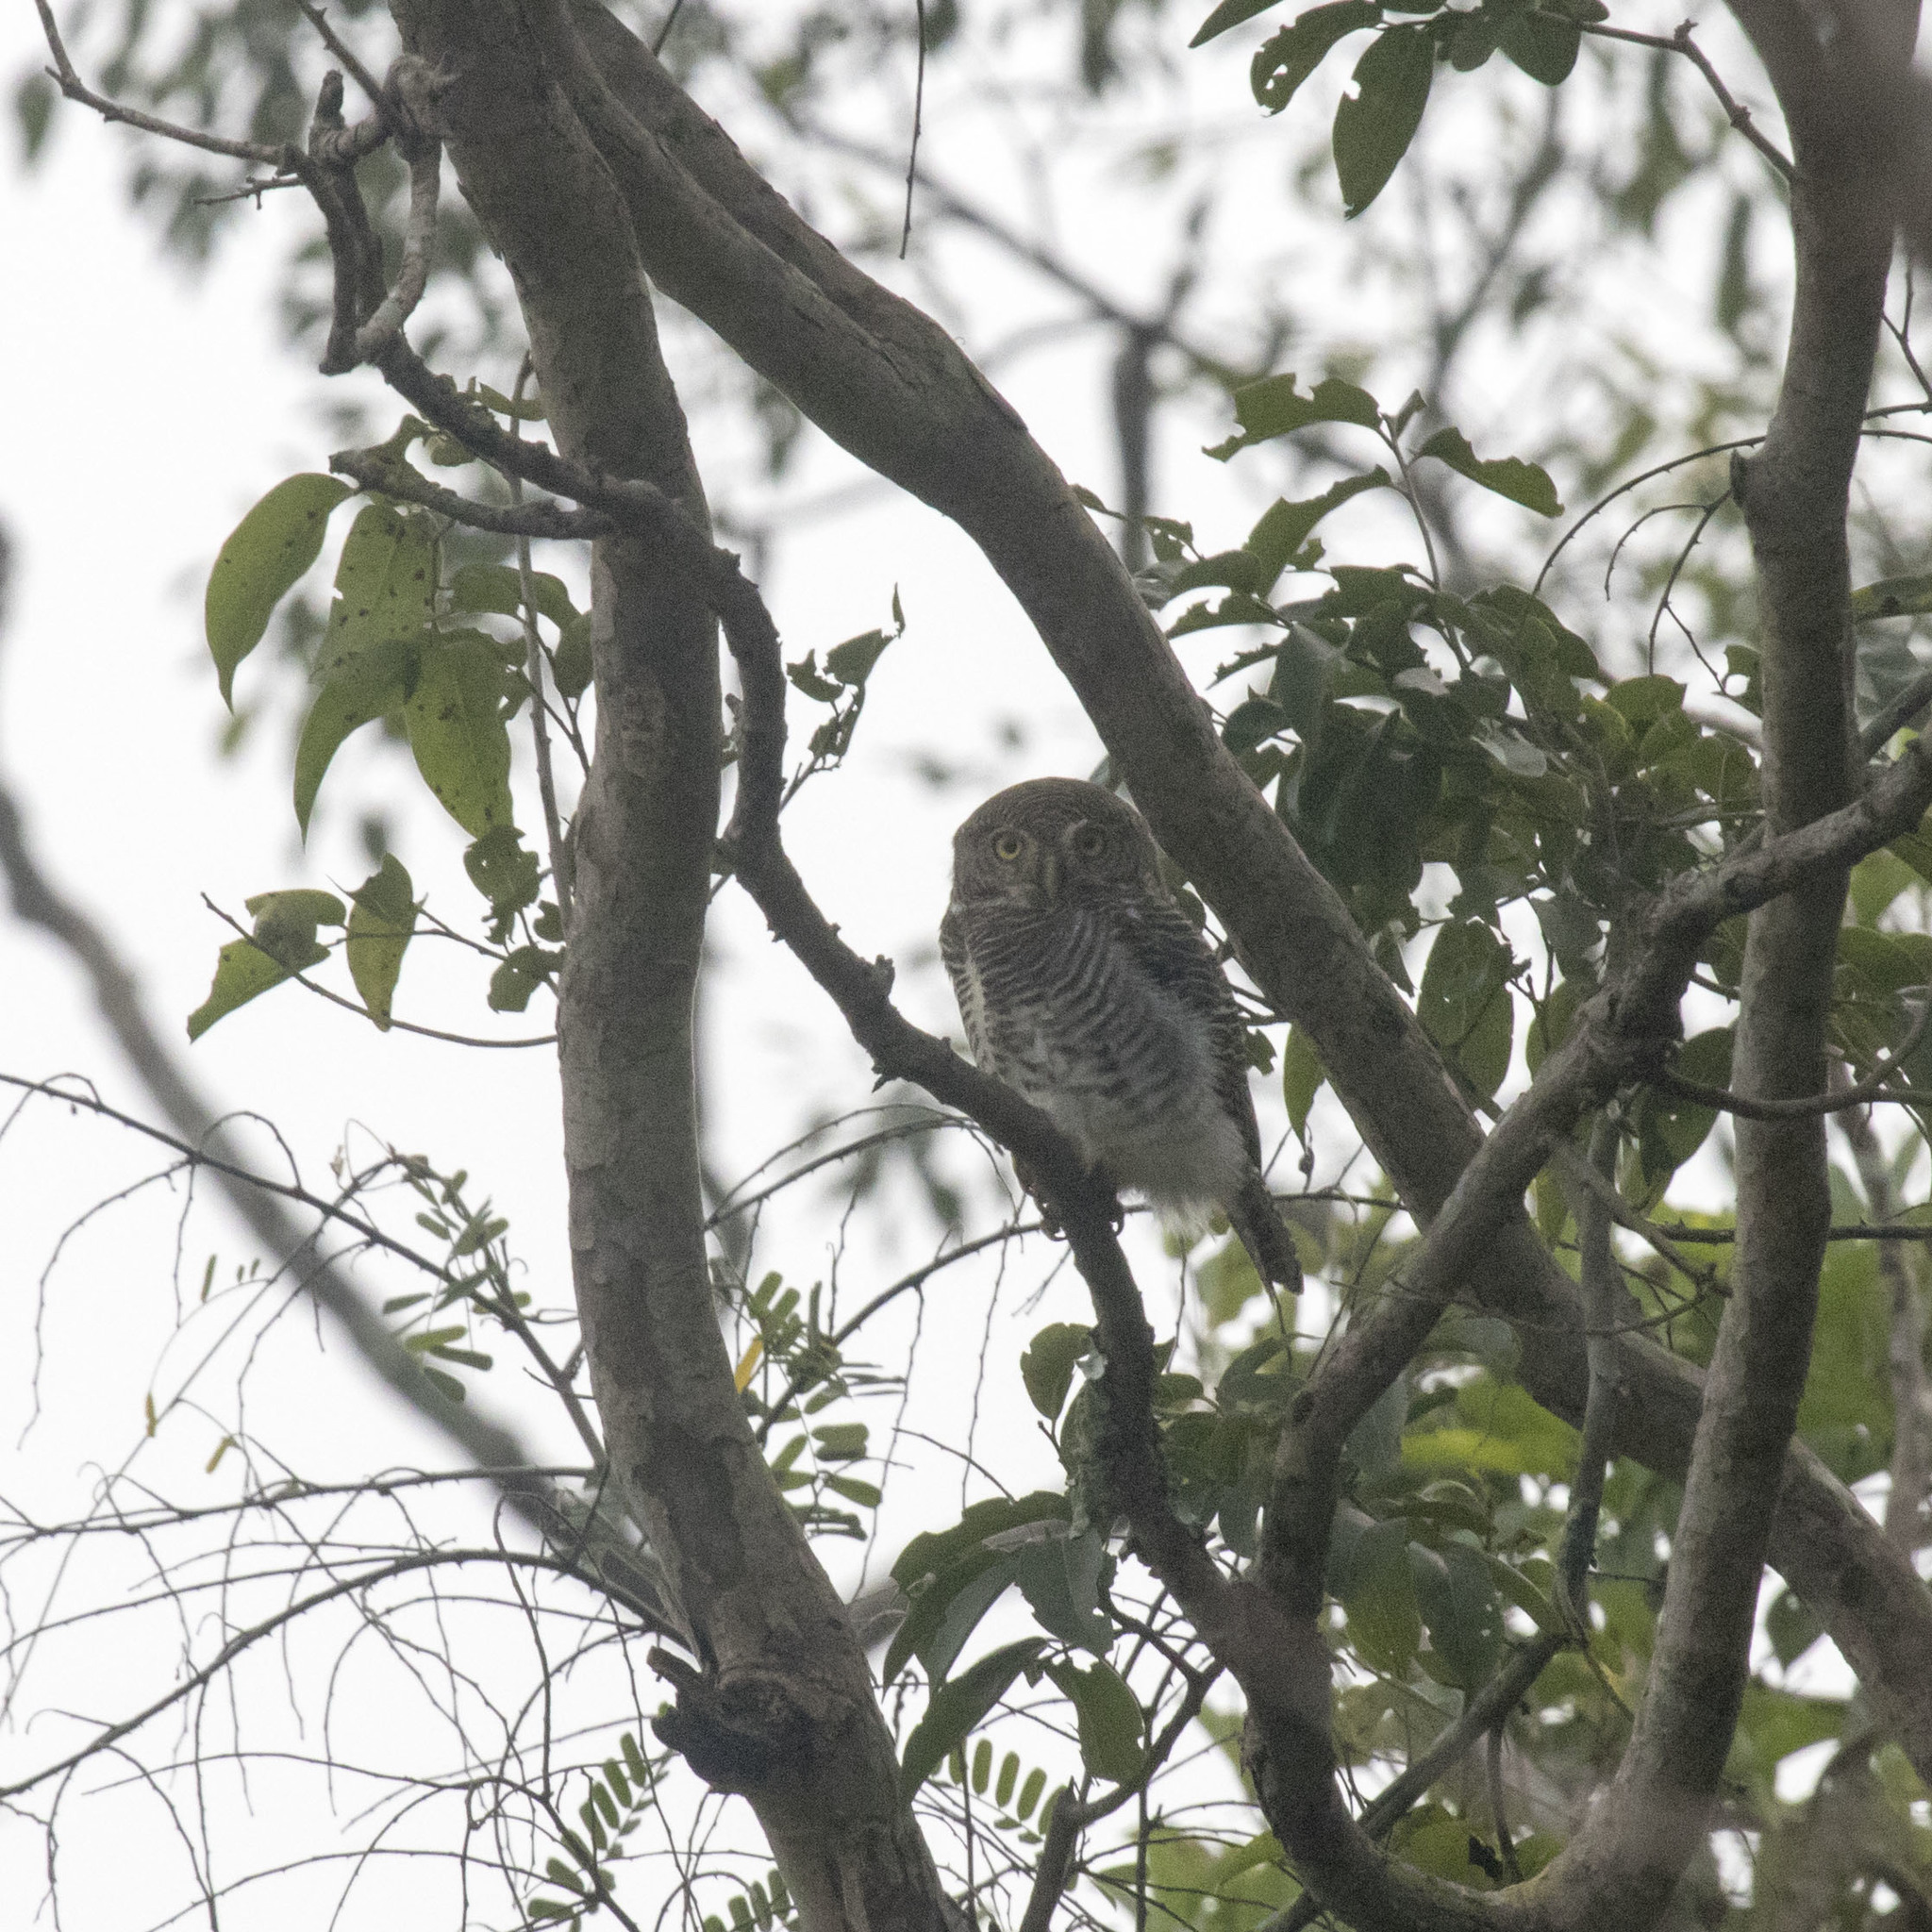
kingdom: Animalia
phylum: Chordata
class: Aves
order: Strigiformes
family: Strigidae
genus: Glaucidium
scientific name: Glaucidium radiatum
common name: Jungle owlet
